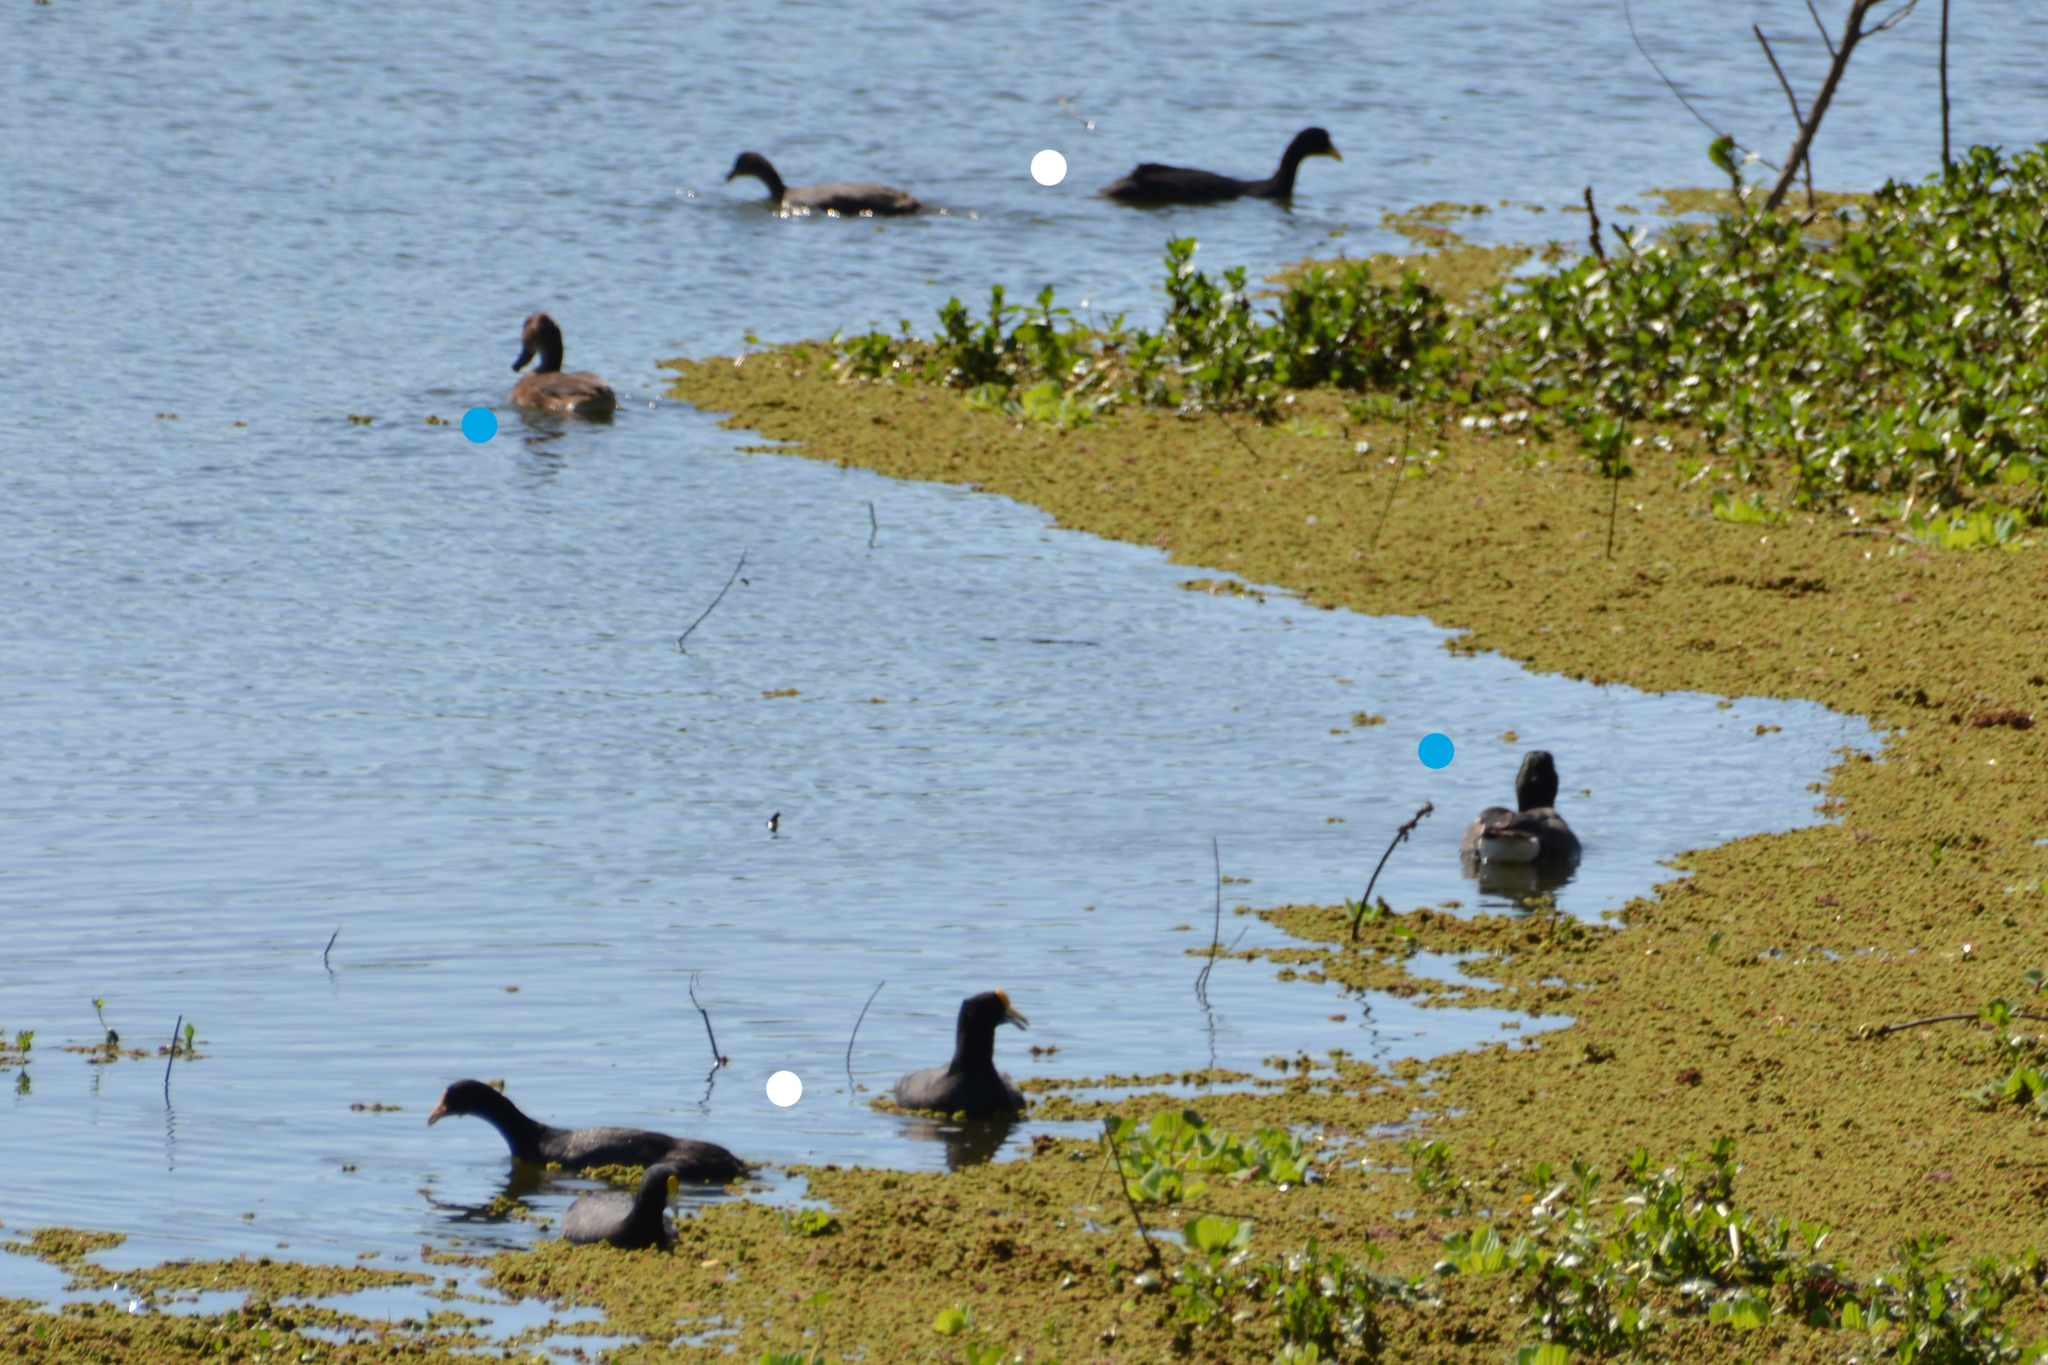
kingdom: Animalia
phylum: Chordata
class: Aves
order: Gruiformes
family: Rallidae
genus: Fulica
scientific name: Fulica leucoptera
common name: White-winged coot
